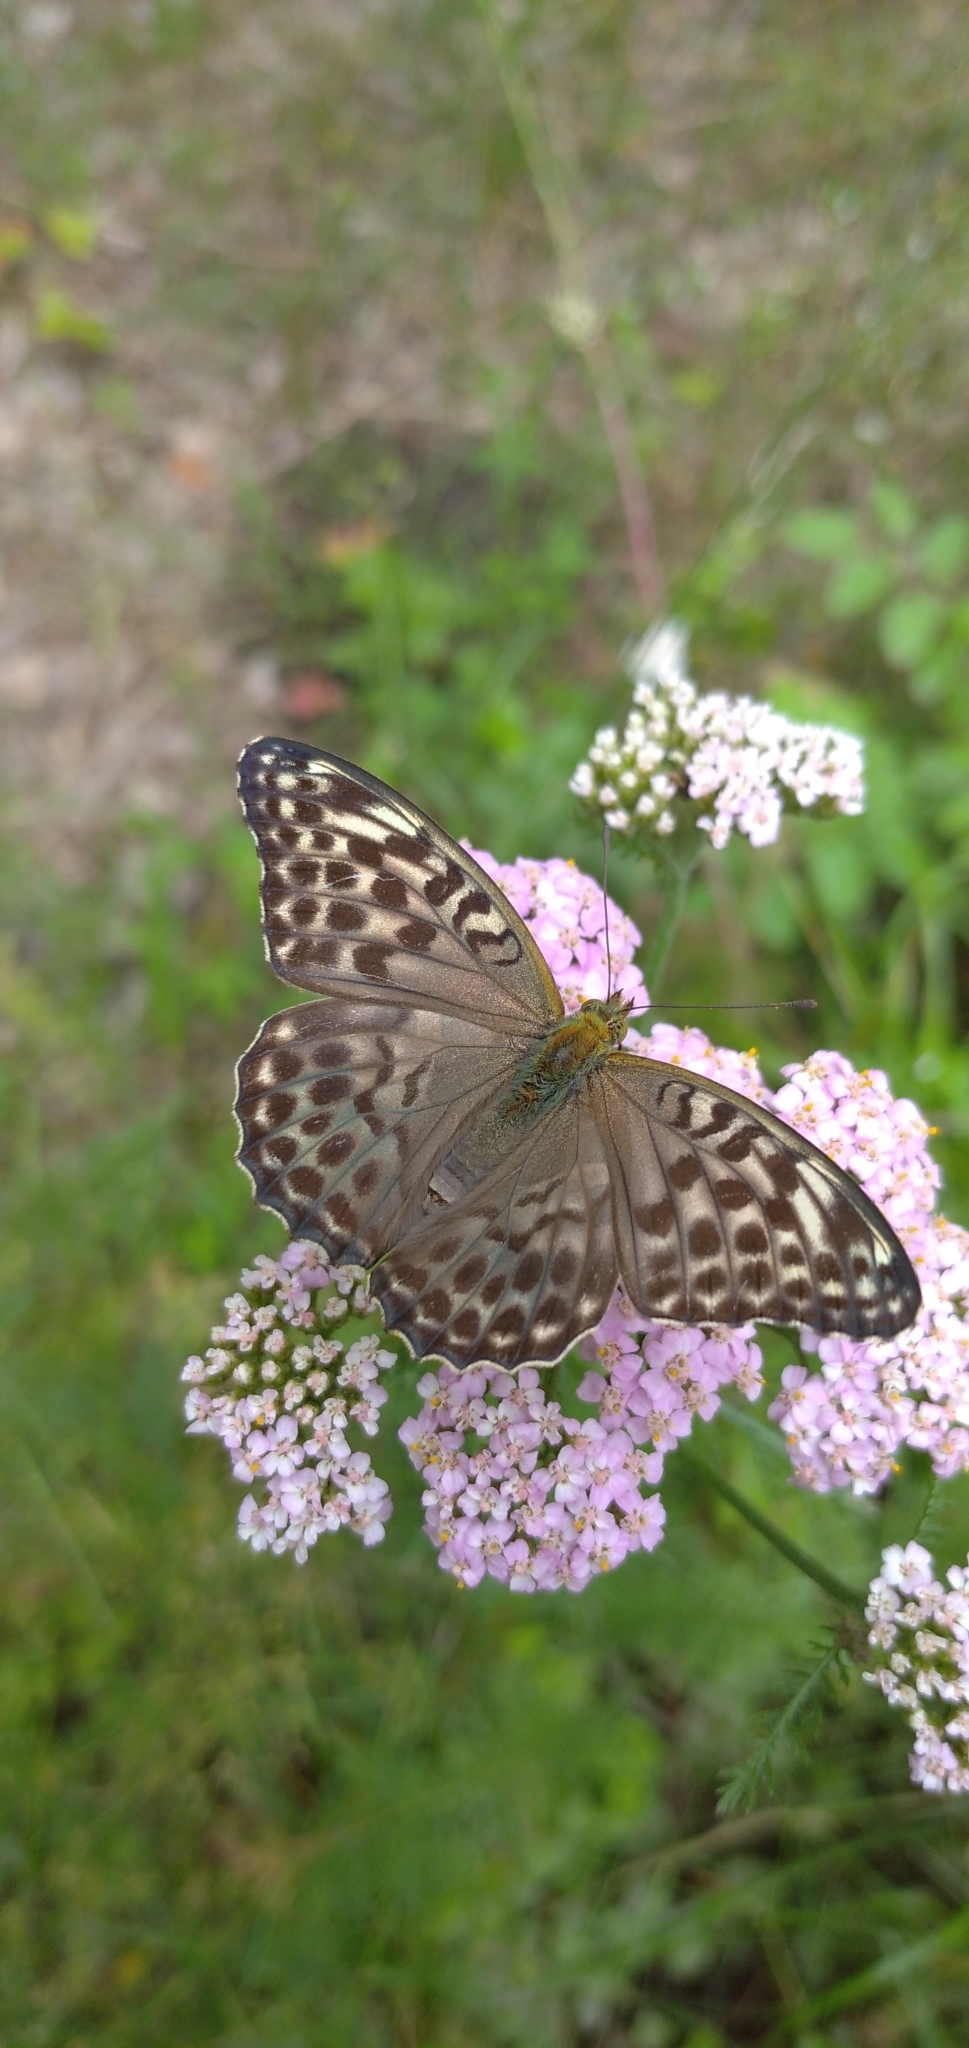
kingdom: Animalia
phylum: Arthropoda
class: Insecta
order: Lepidoptera
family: Nymphalidae
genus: Argynnis
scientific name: Argynnis paphia
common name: Silver-washed fritillary
